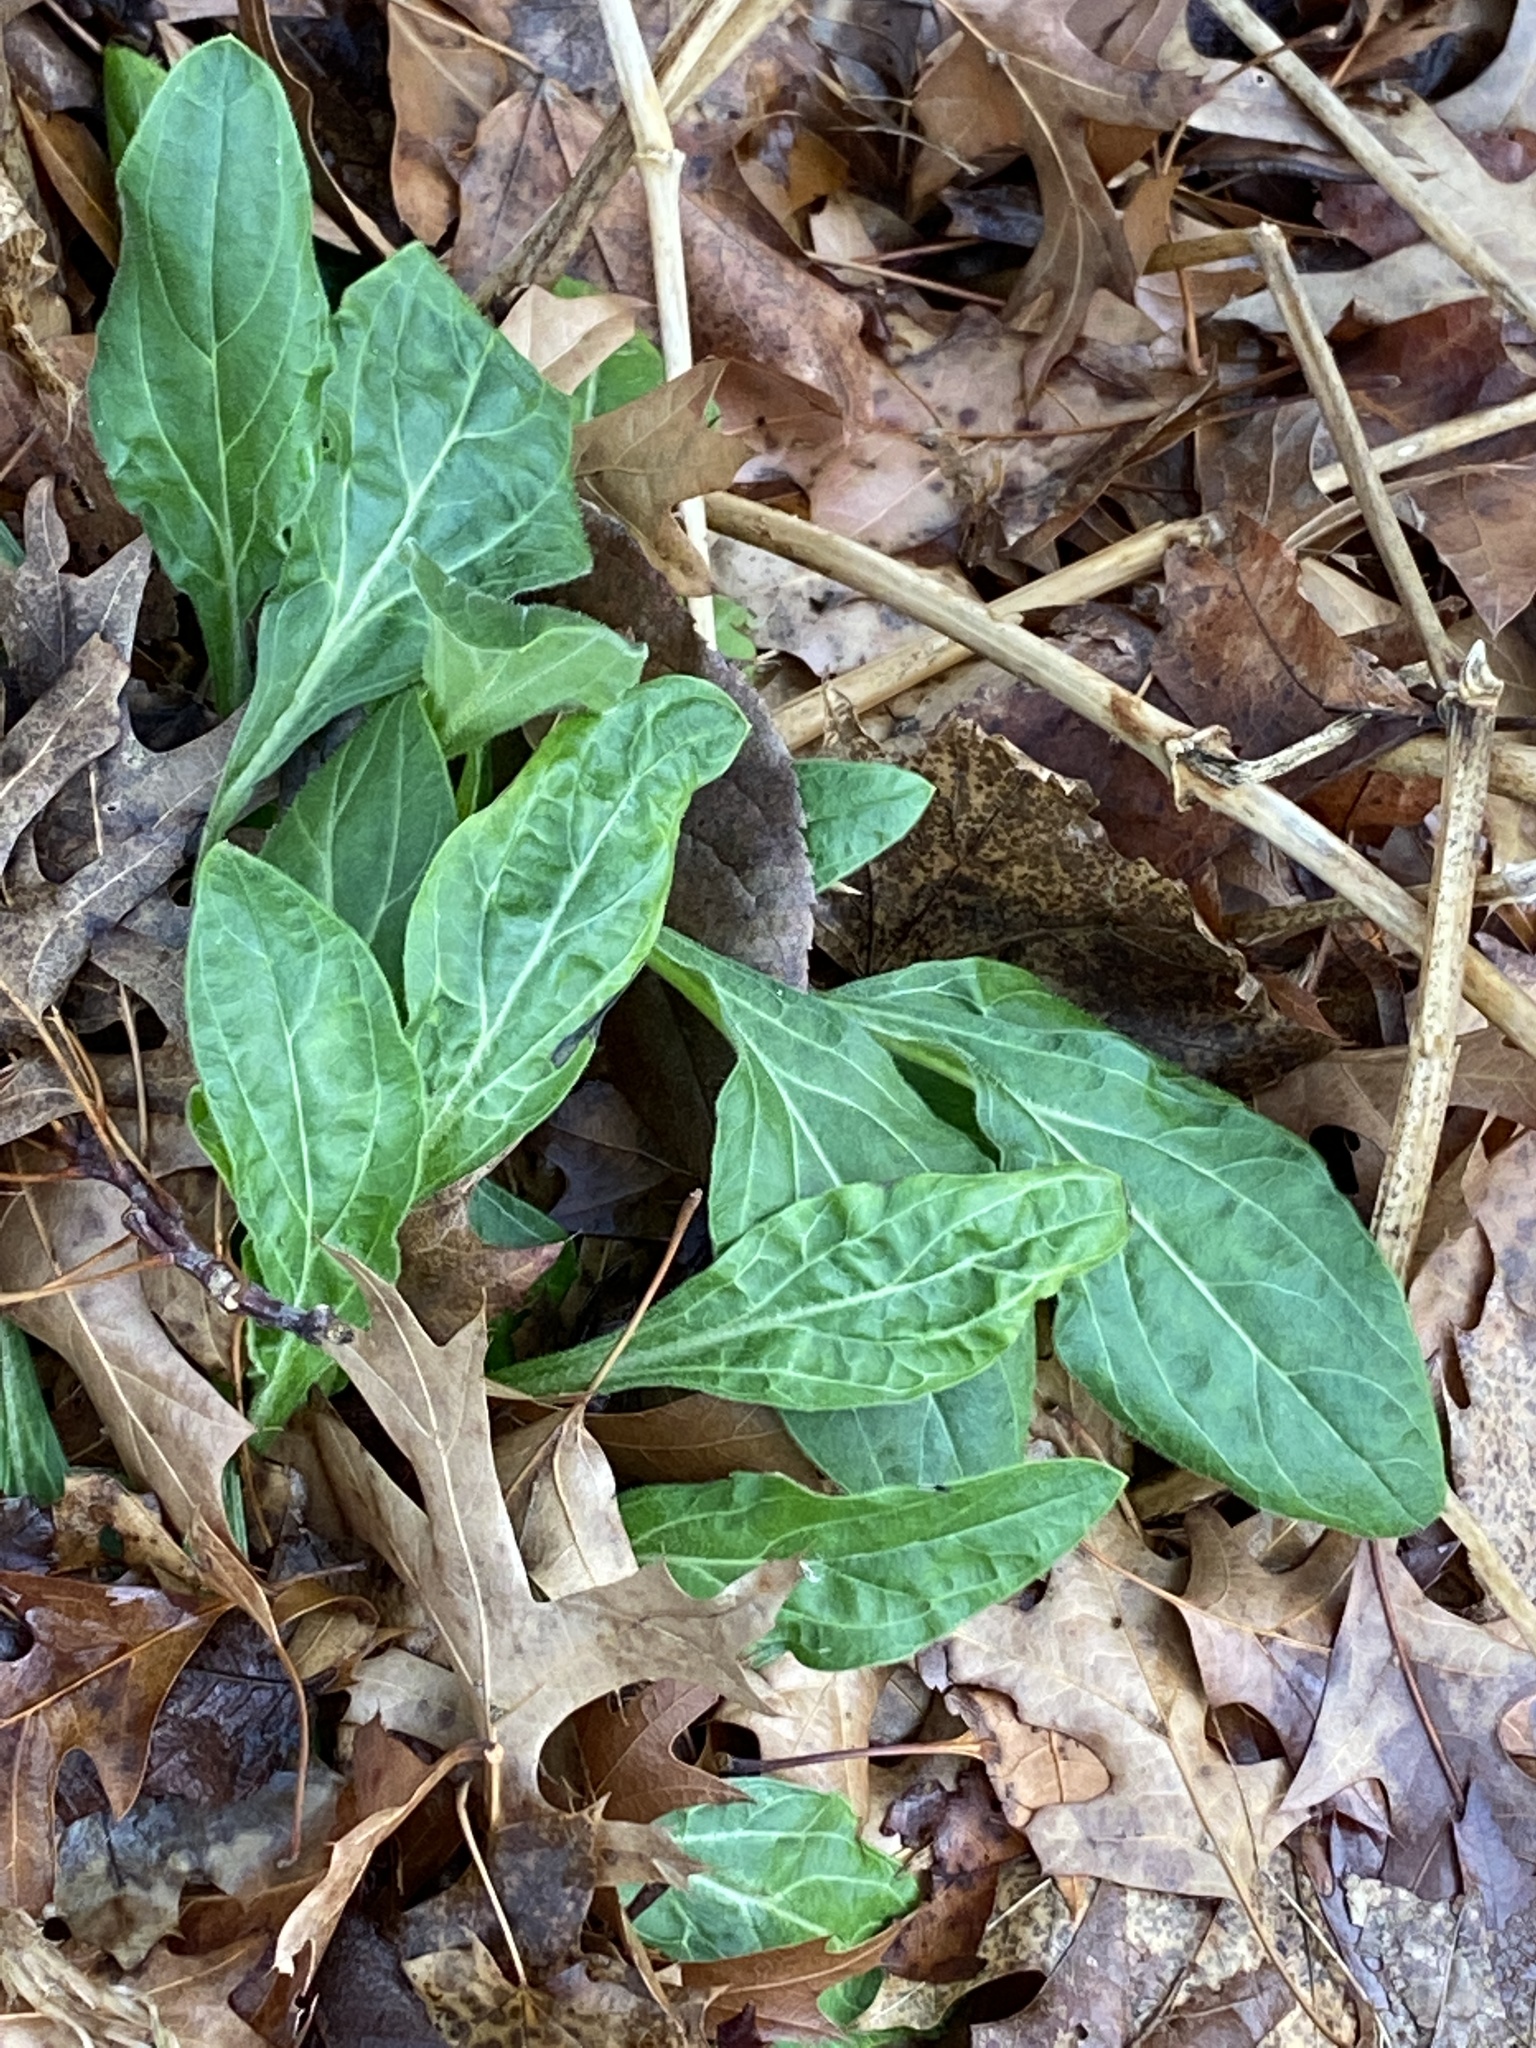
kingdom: Plantae
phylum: Tracheophyta
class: Magnoliopsida
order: Caryophyllales
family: Caryophyllaceae
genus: Silene
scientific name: Silene latifolia
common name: White campion
